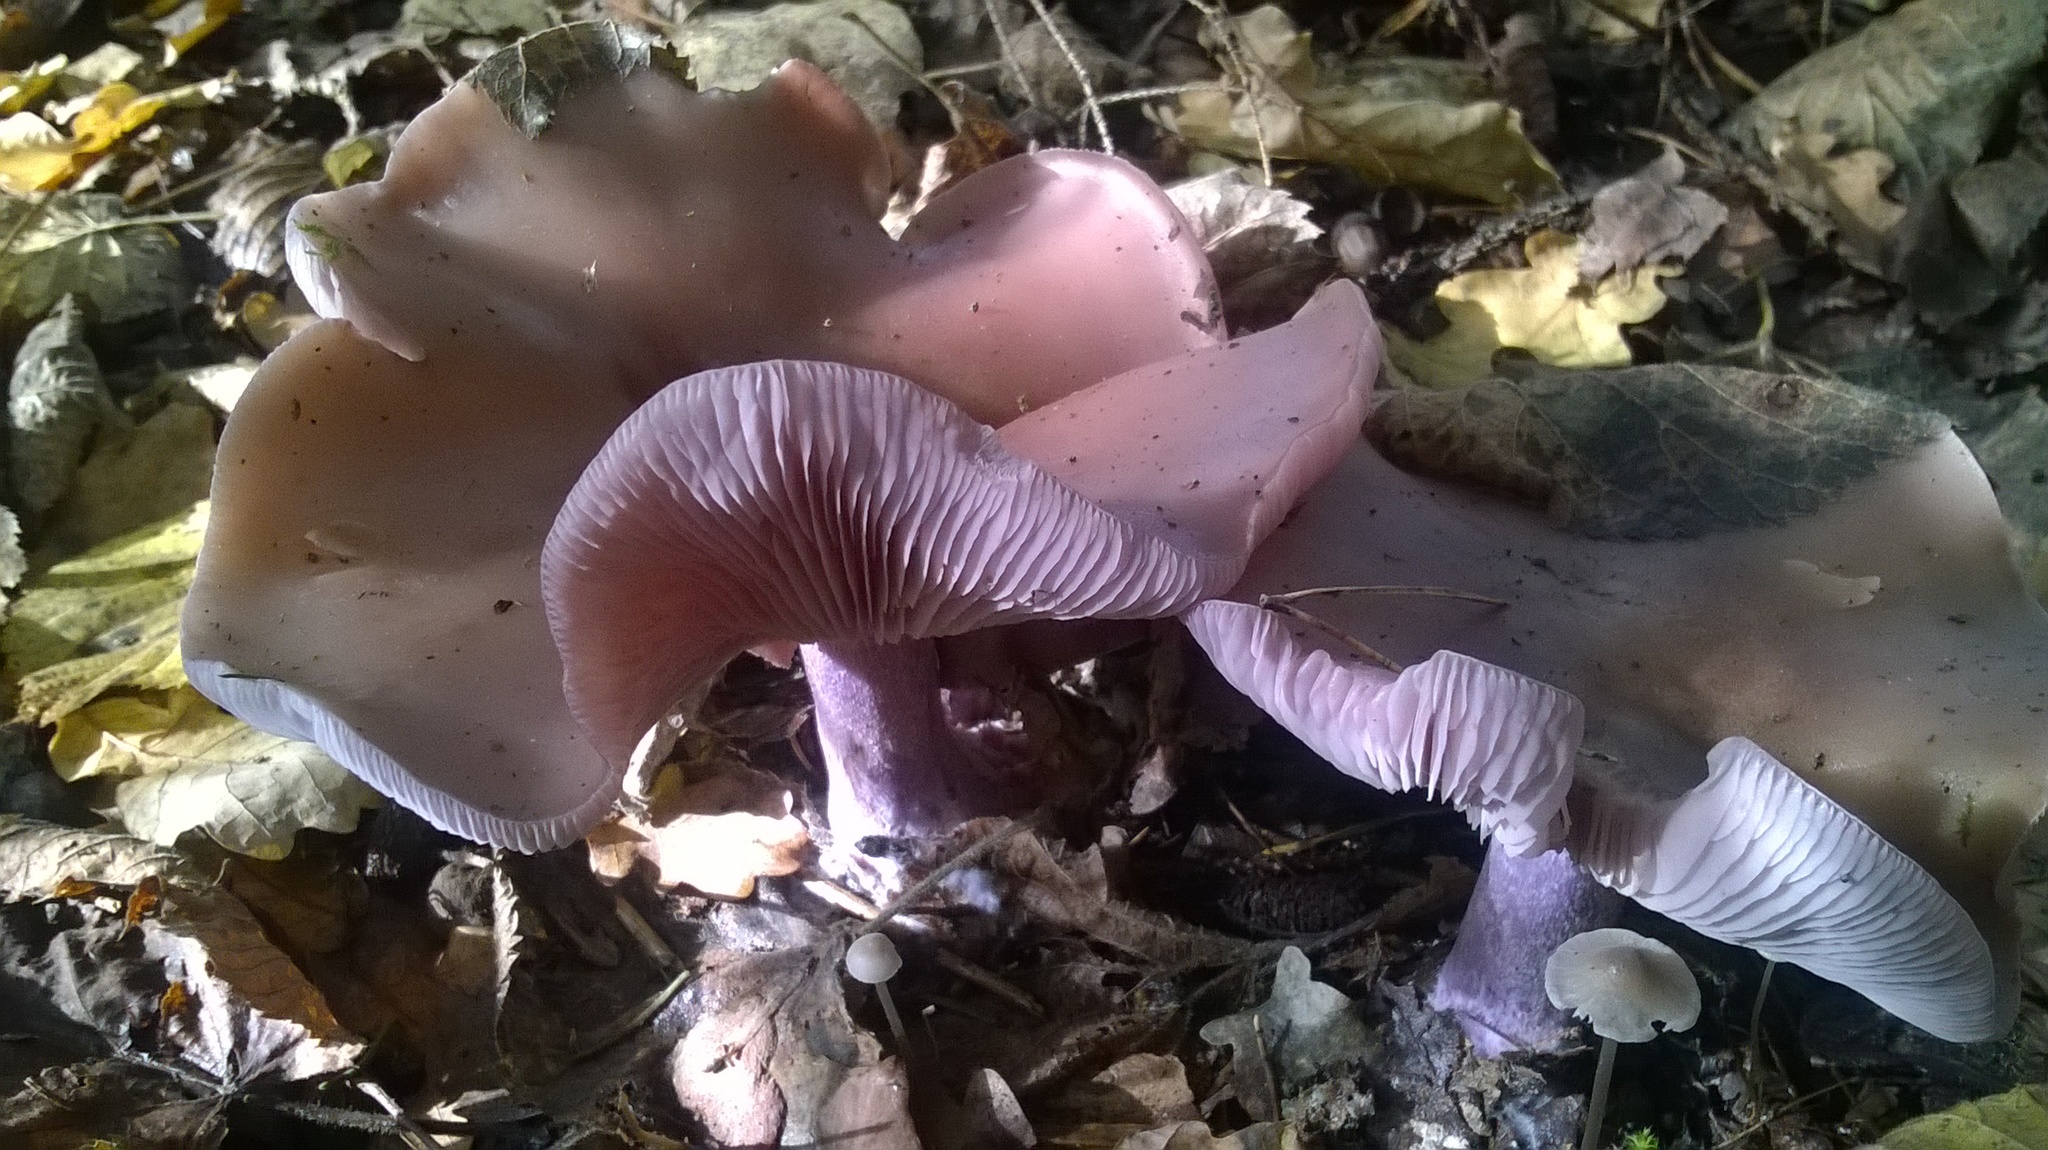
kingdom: Fungi
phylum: Basidiomycota
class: Agaricomycetes
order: Agaricales
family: Tricholomataceae
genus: Collybia
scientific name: Collybia
